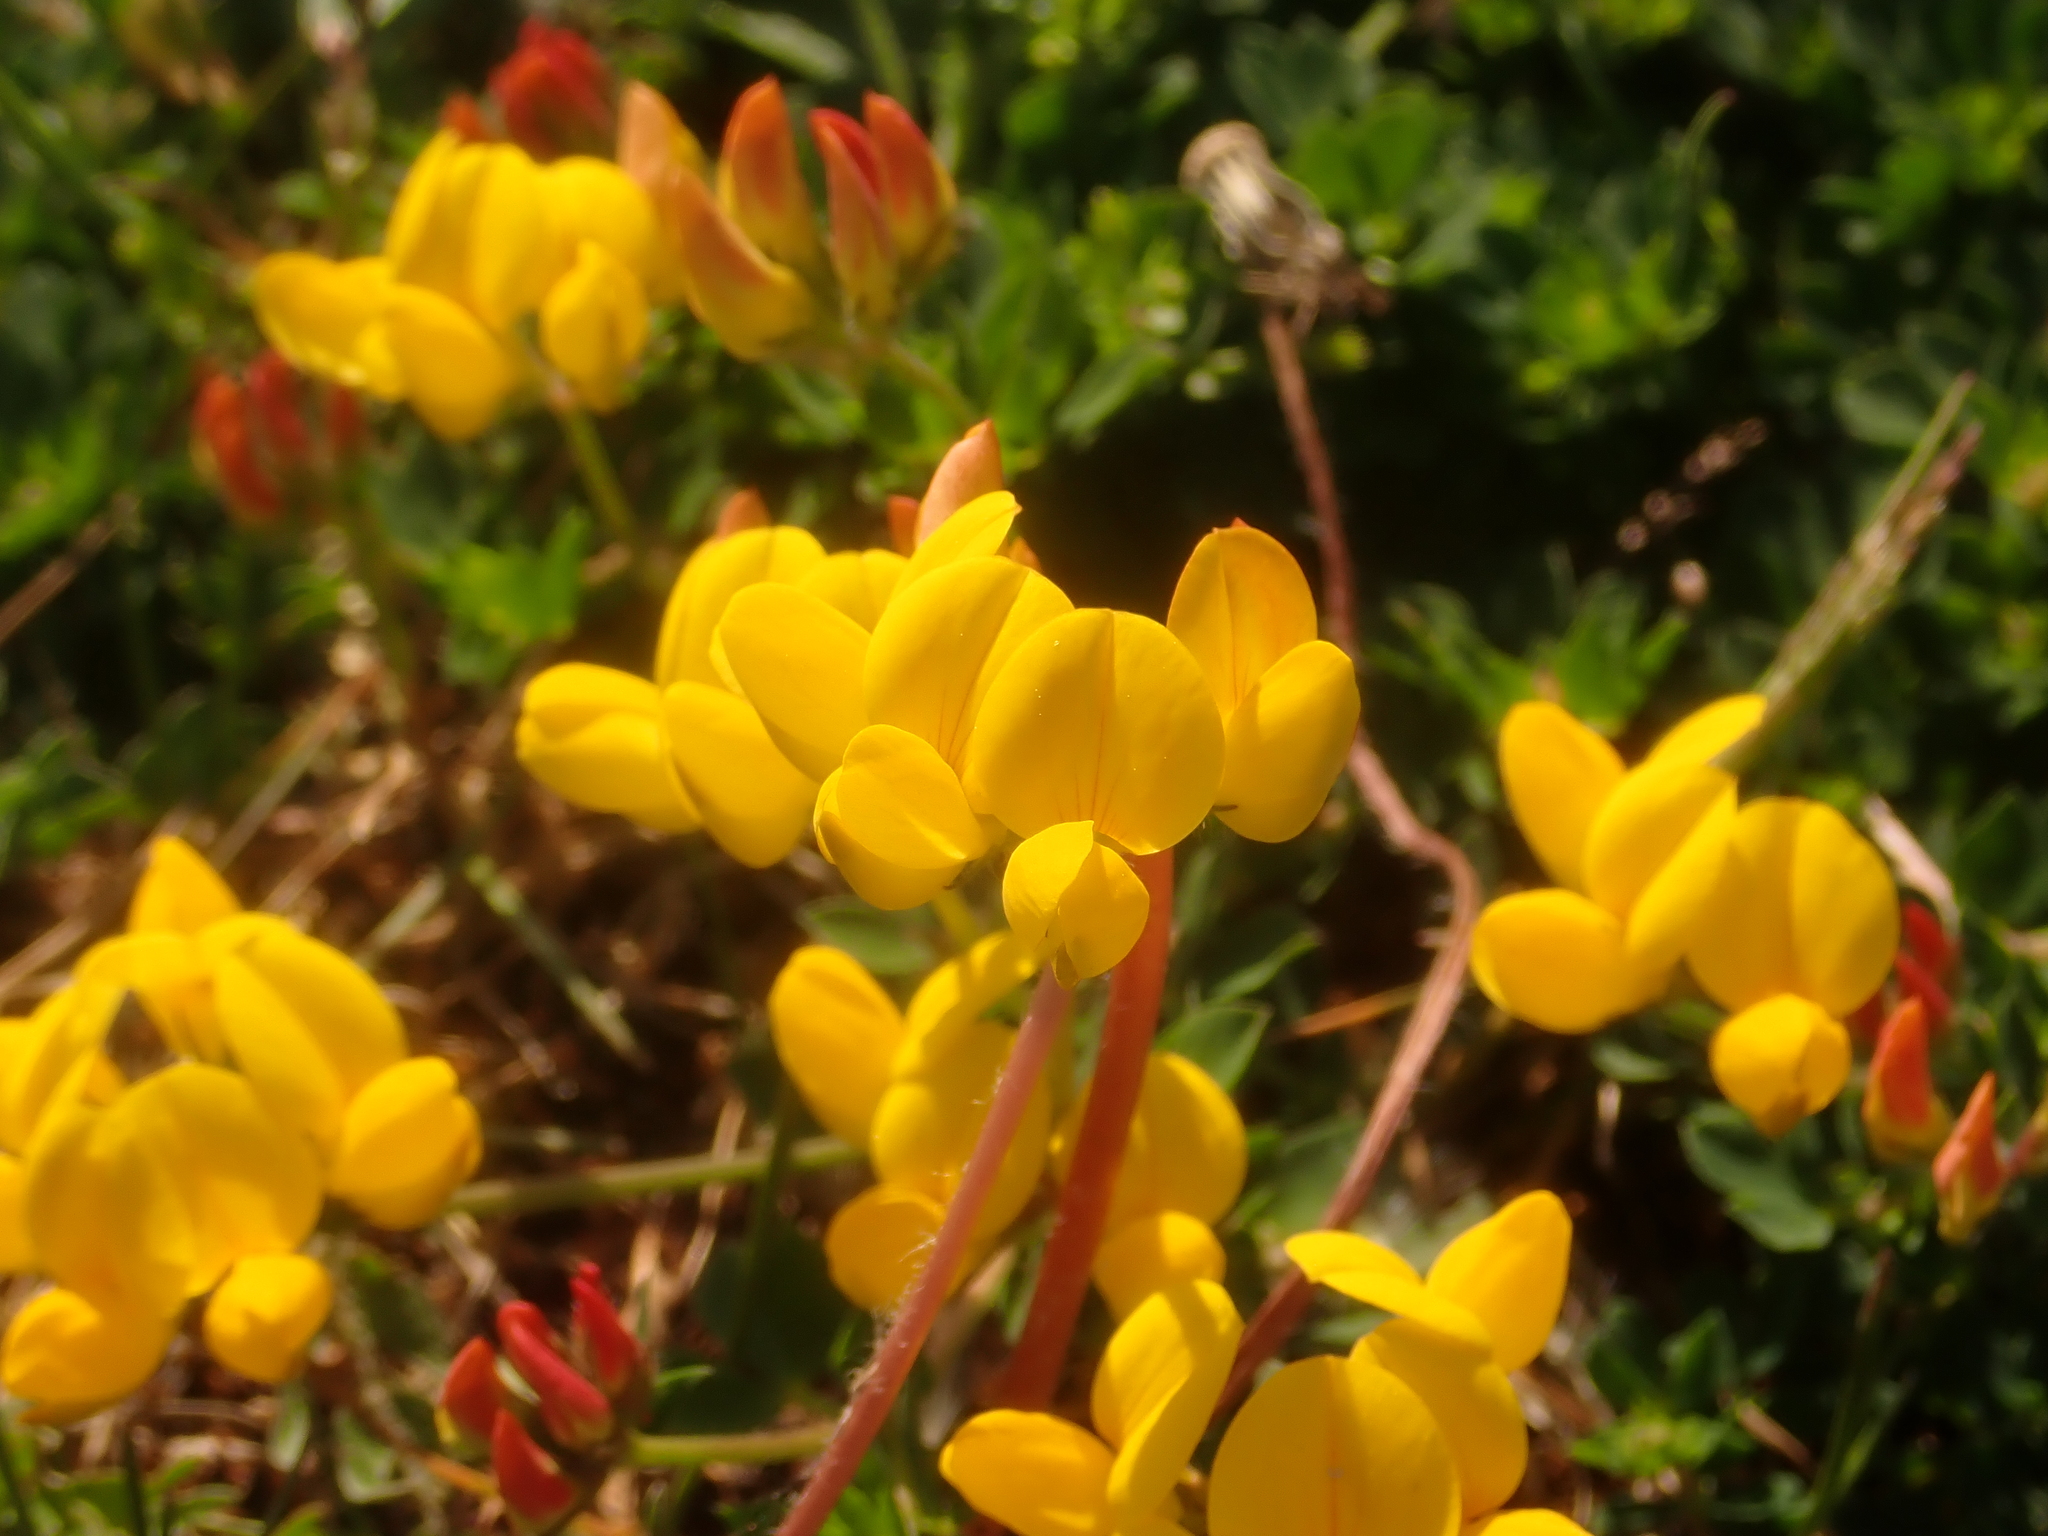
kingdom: Plantae
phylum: Tracheophyta
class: Magnoliopsida
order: Fabales
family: Fabaceae
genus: Lotus
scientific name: Lotus corniculatus
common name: Common bird's-foot-trefoil
